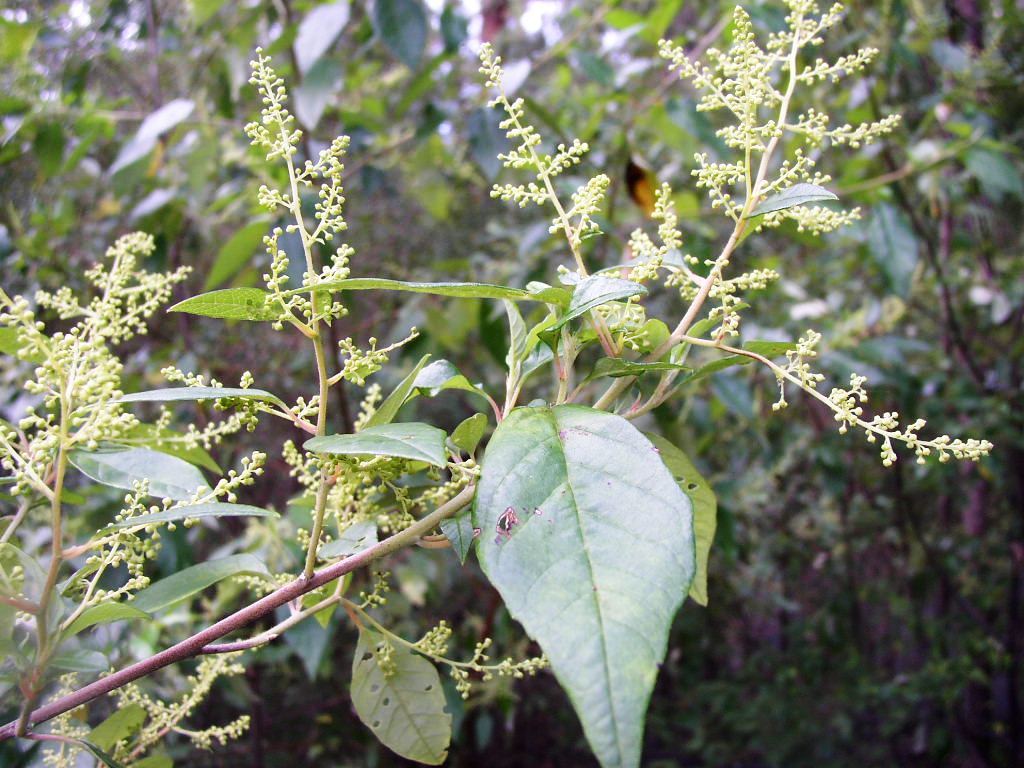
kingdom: Plantae
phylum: Tracheophyta
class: Magnoliopsida
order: Rosales
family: Rhamnaceae
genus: Trymalium
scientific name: Trymalium odoratissimum
